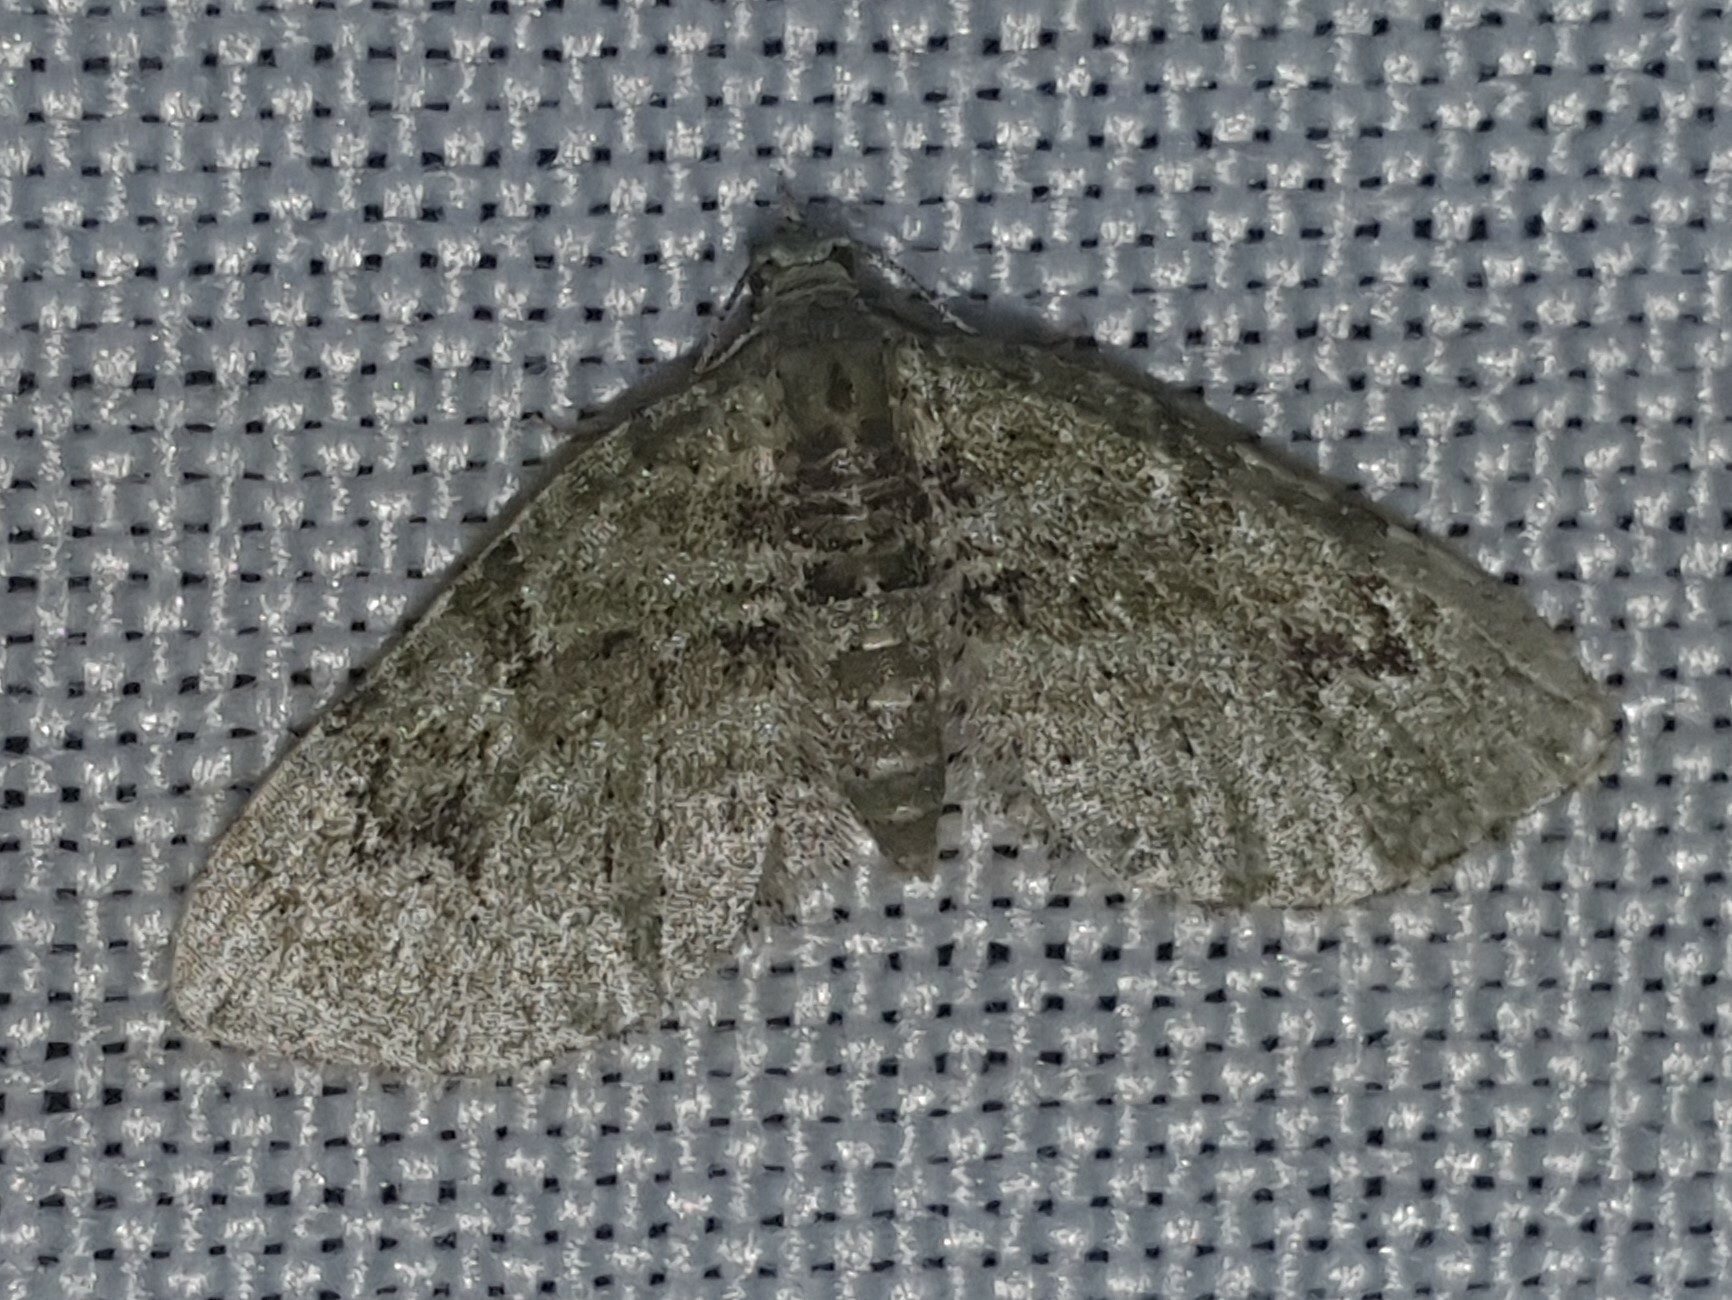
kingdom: Animalia
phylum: Arthropoda
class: Insecta
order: Lepidoptera
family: Geometridae
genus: Chloroclystis
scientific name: Chloroclystis v-ata
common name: V-pug
